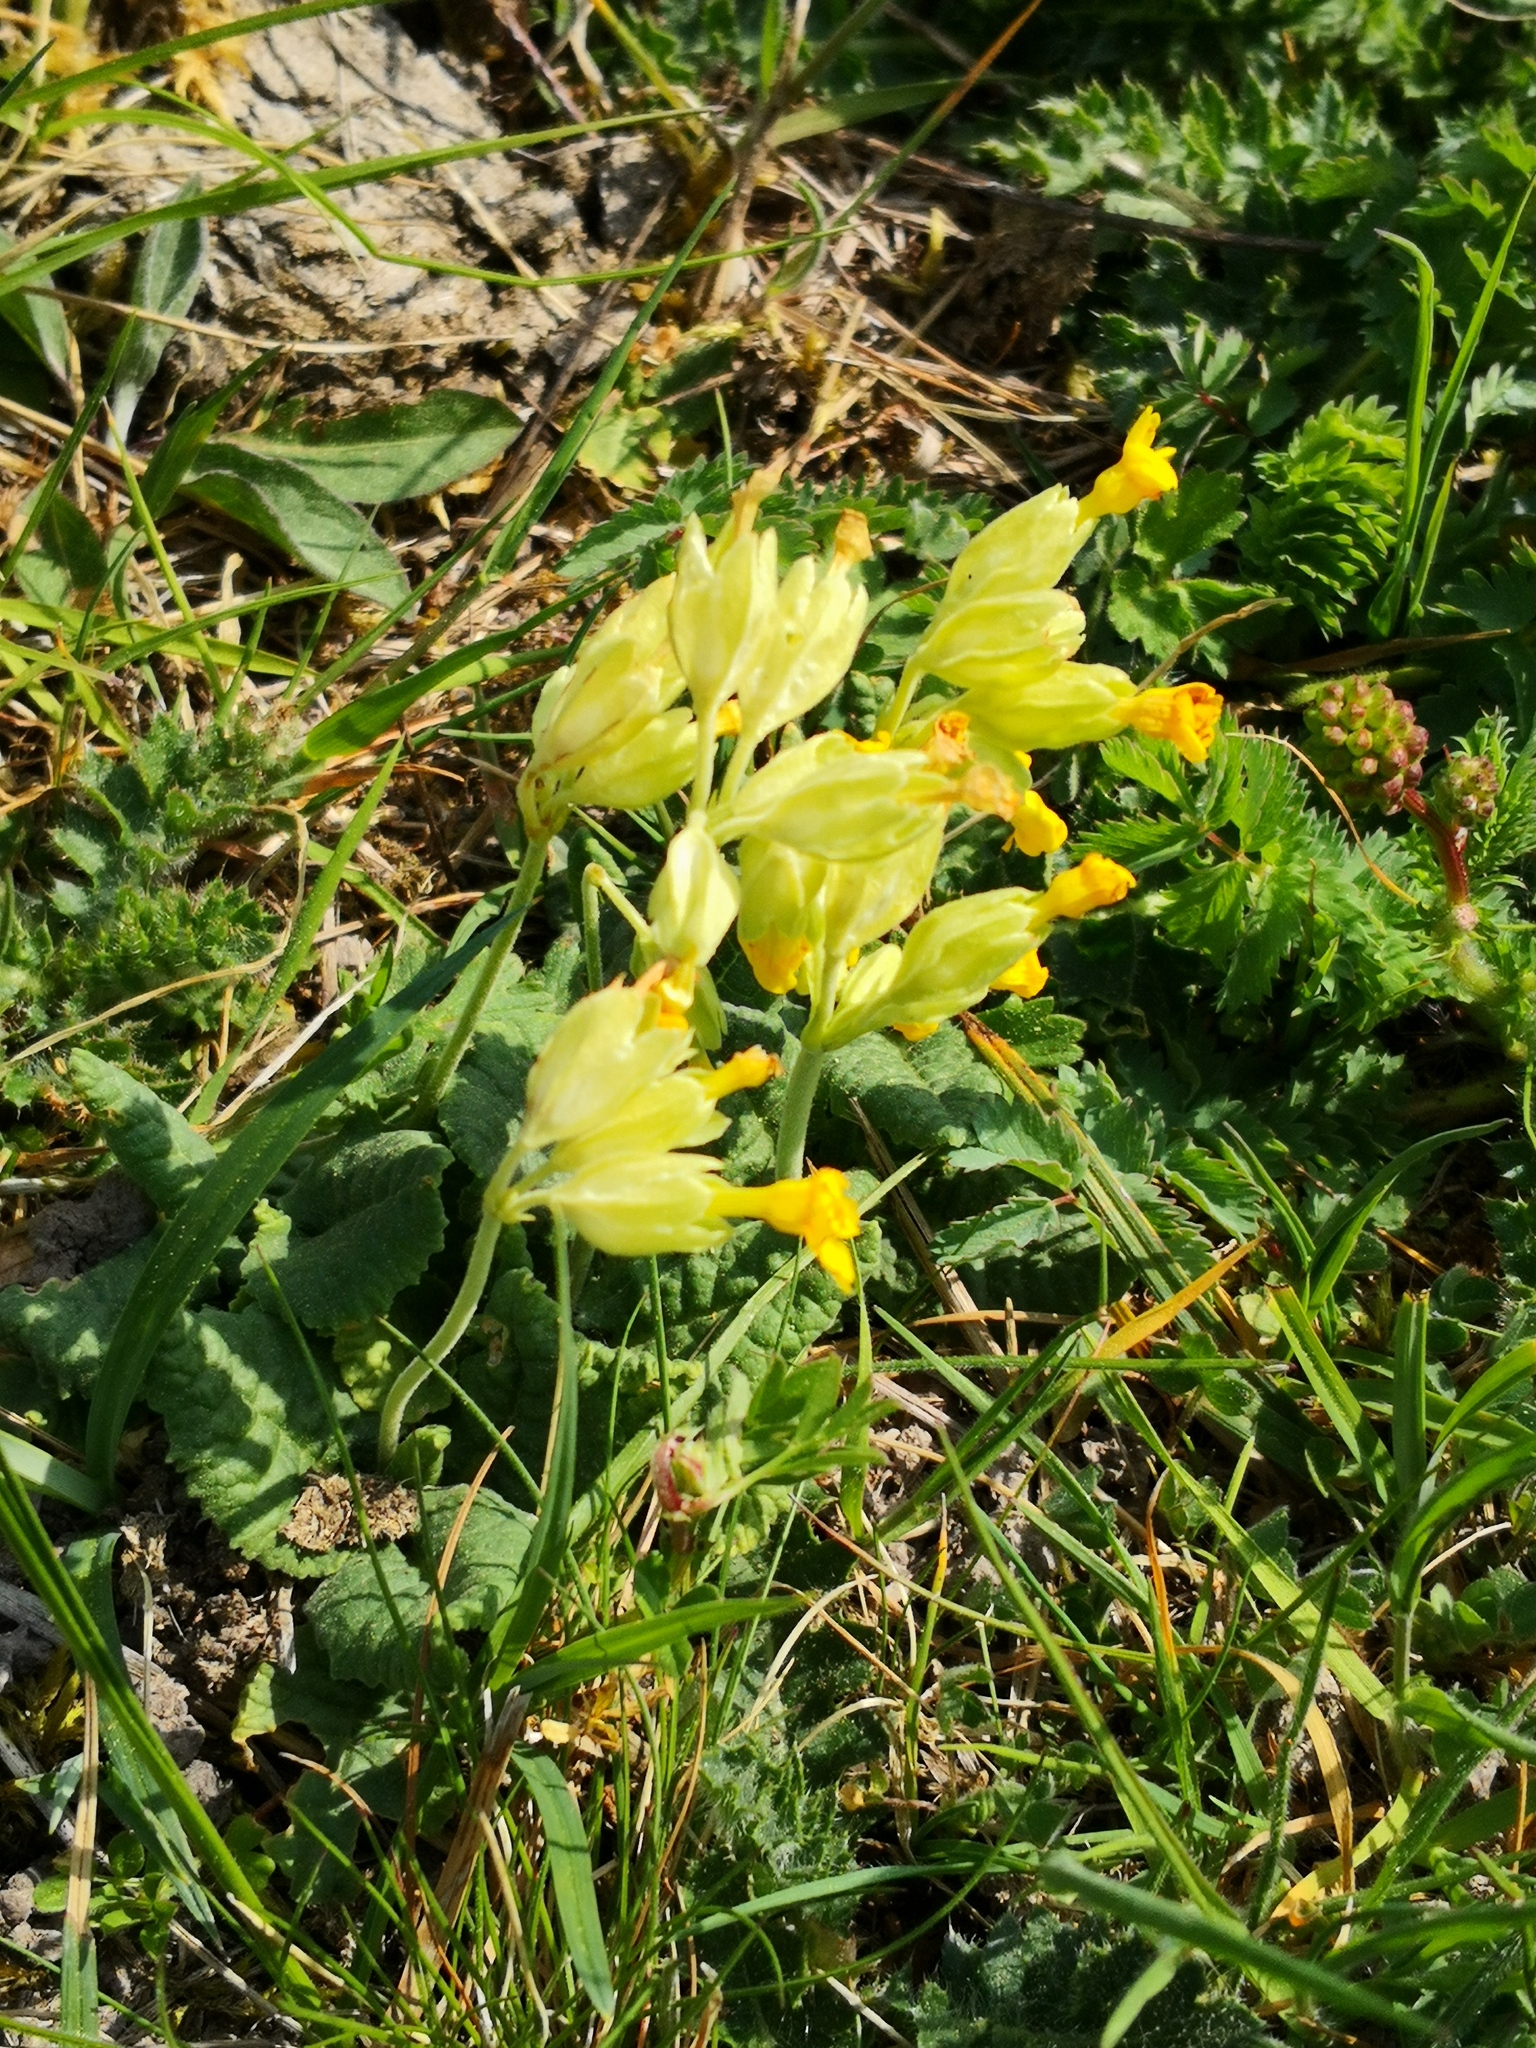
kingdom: Plantae
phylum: Tracheophyta
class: Magnoliopsida
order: Ericales
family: Primulaceae
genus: Primula
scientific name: Primula veris
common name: Cowslip
